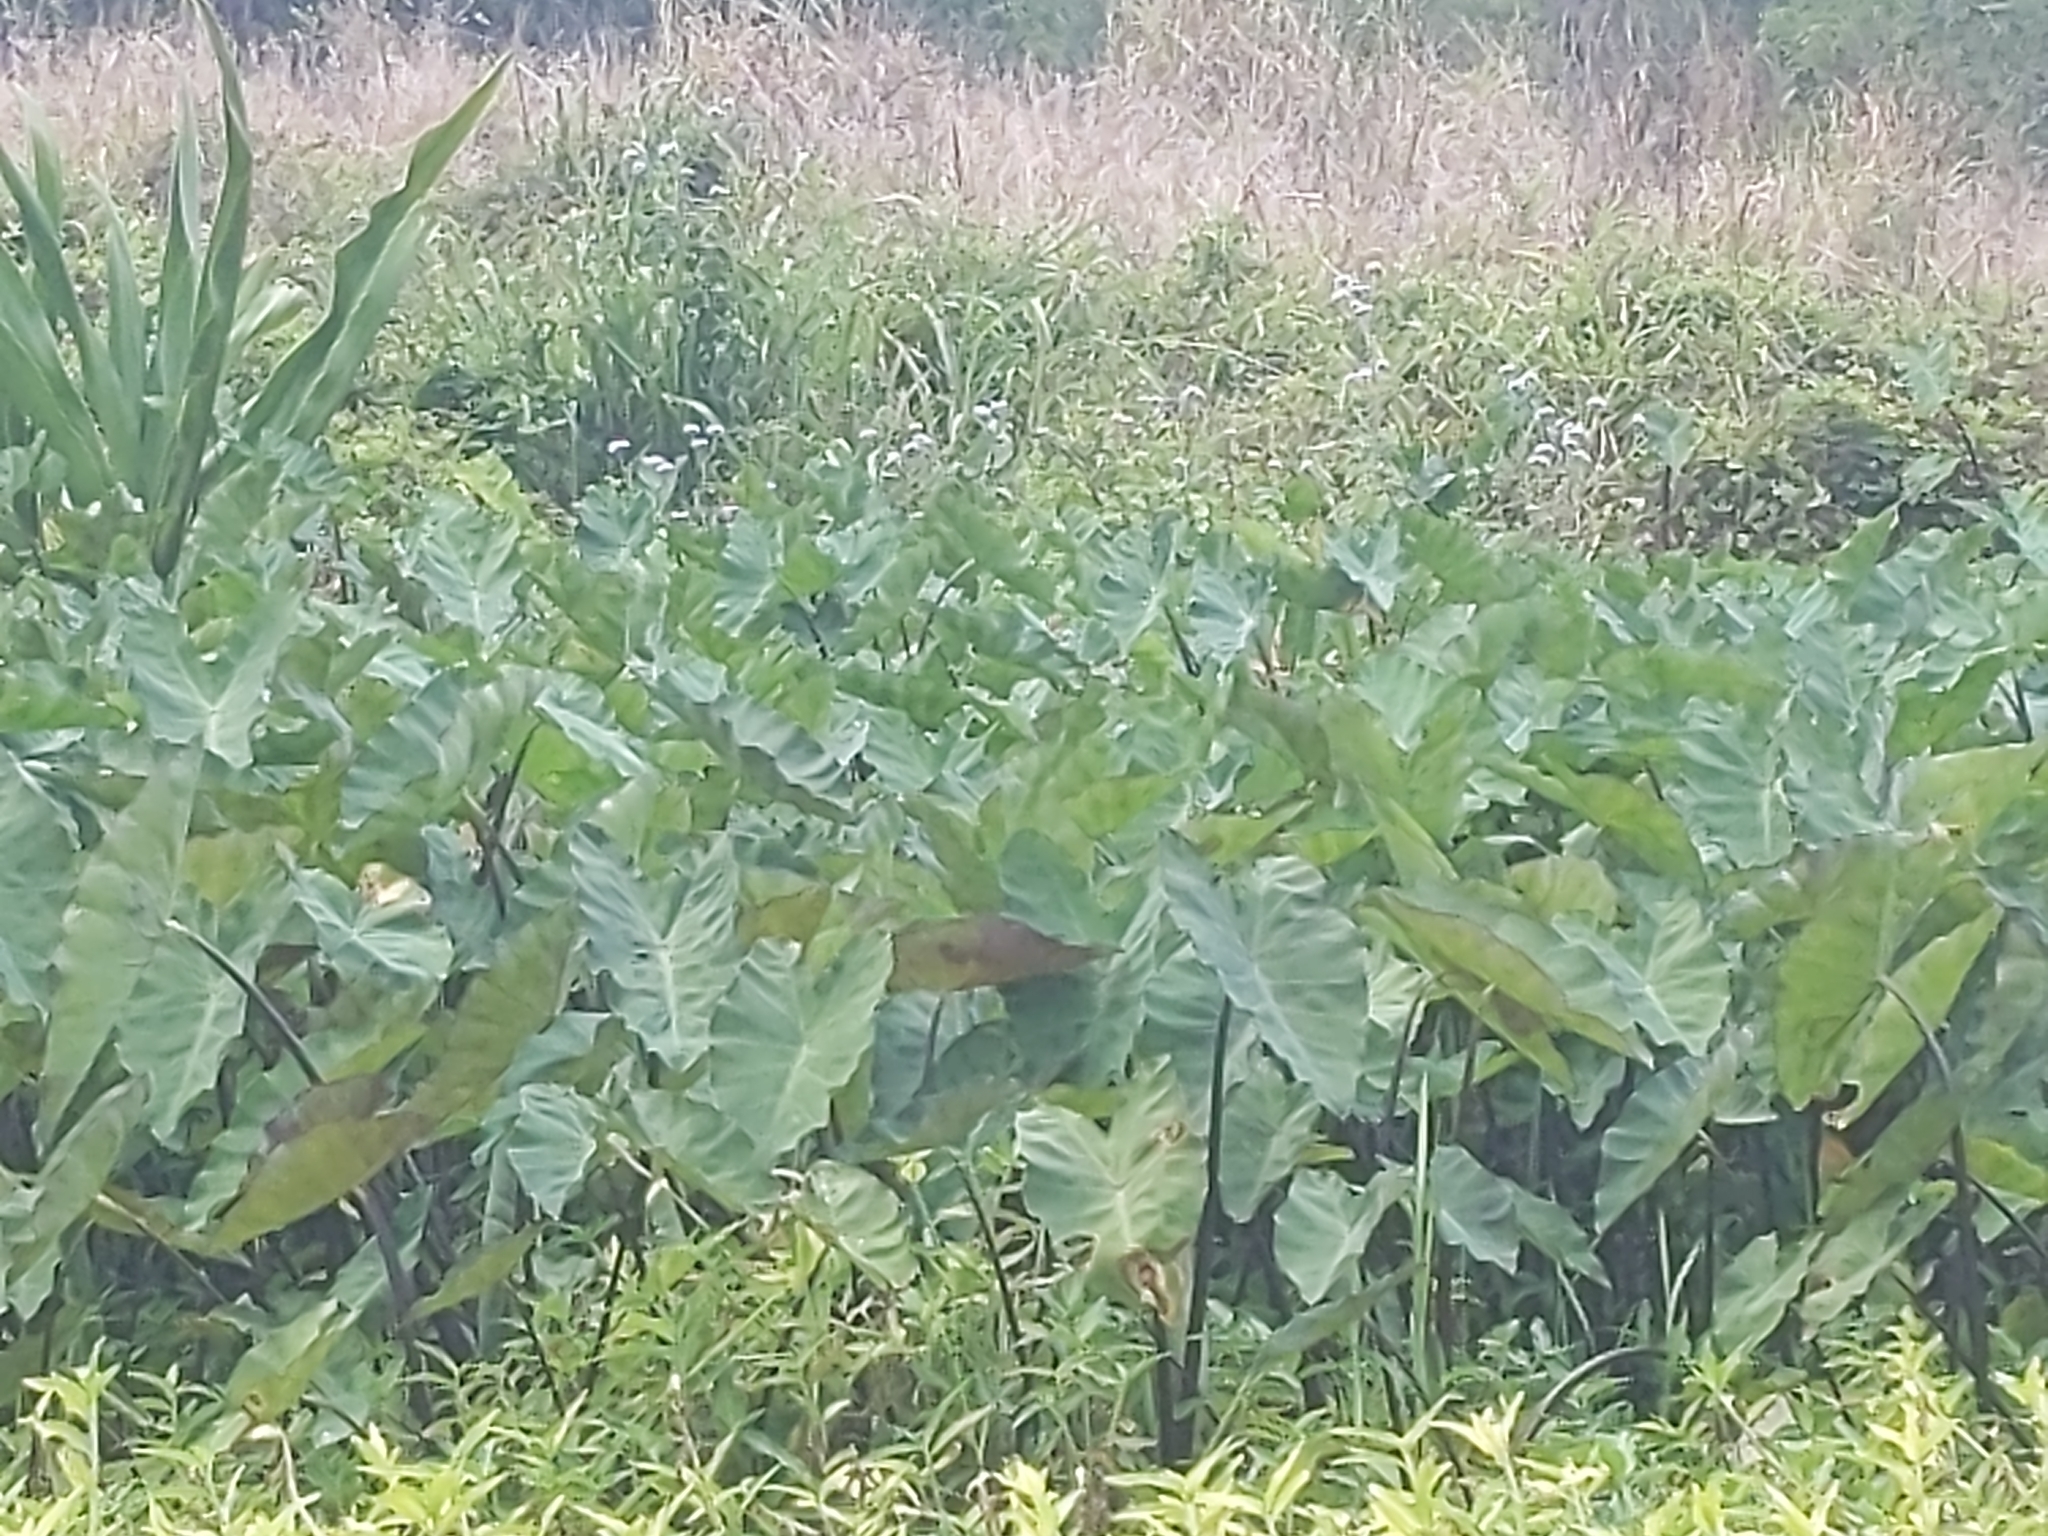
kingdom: Plantae
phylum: Tracheophyta
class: Liliopsida
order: Alismatales
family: Araceae
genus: Colocasia
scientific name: Colocasia esculenta
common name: Taro
